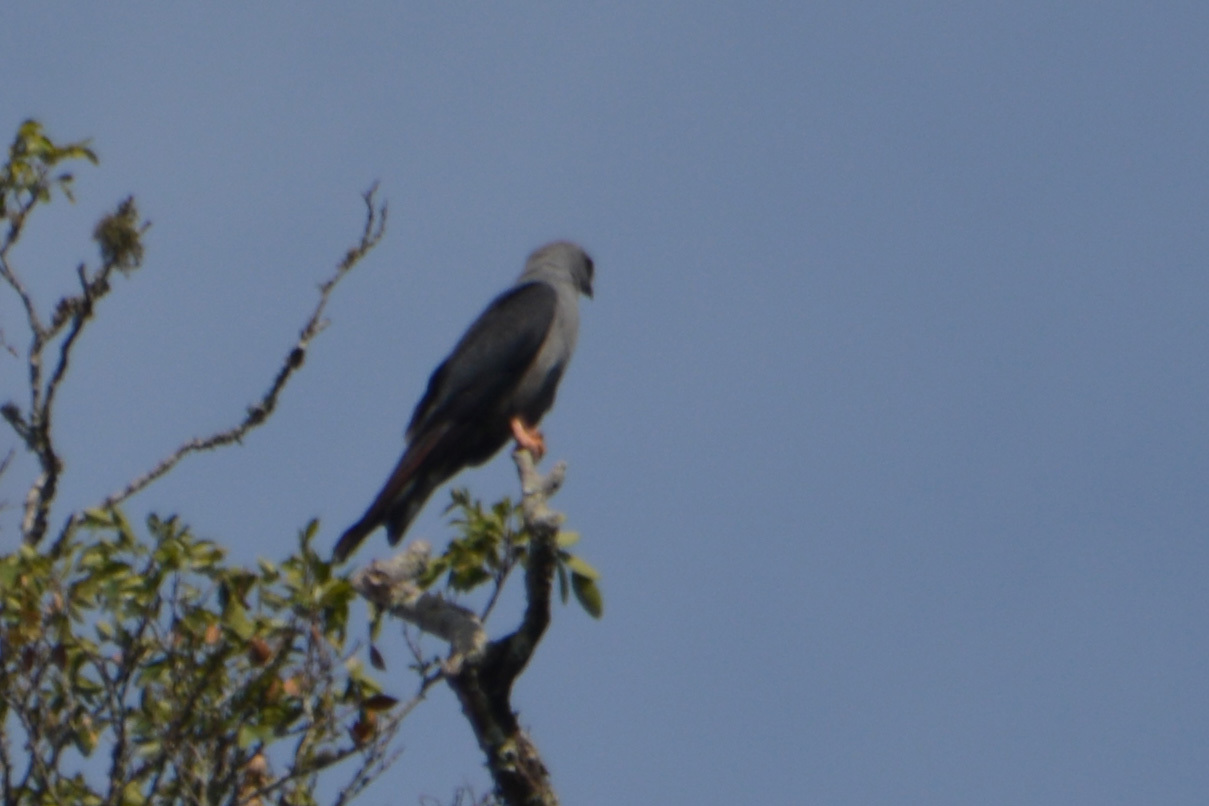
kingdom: Animalia
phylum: Chordata
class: Aves
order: Accipitriformes
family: Accipitridae
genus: Ictinia
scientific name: Ictinia plumbea
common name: Plumbeous kite
